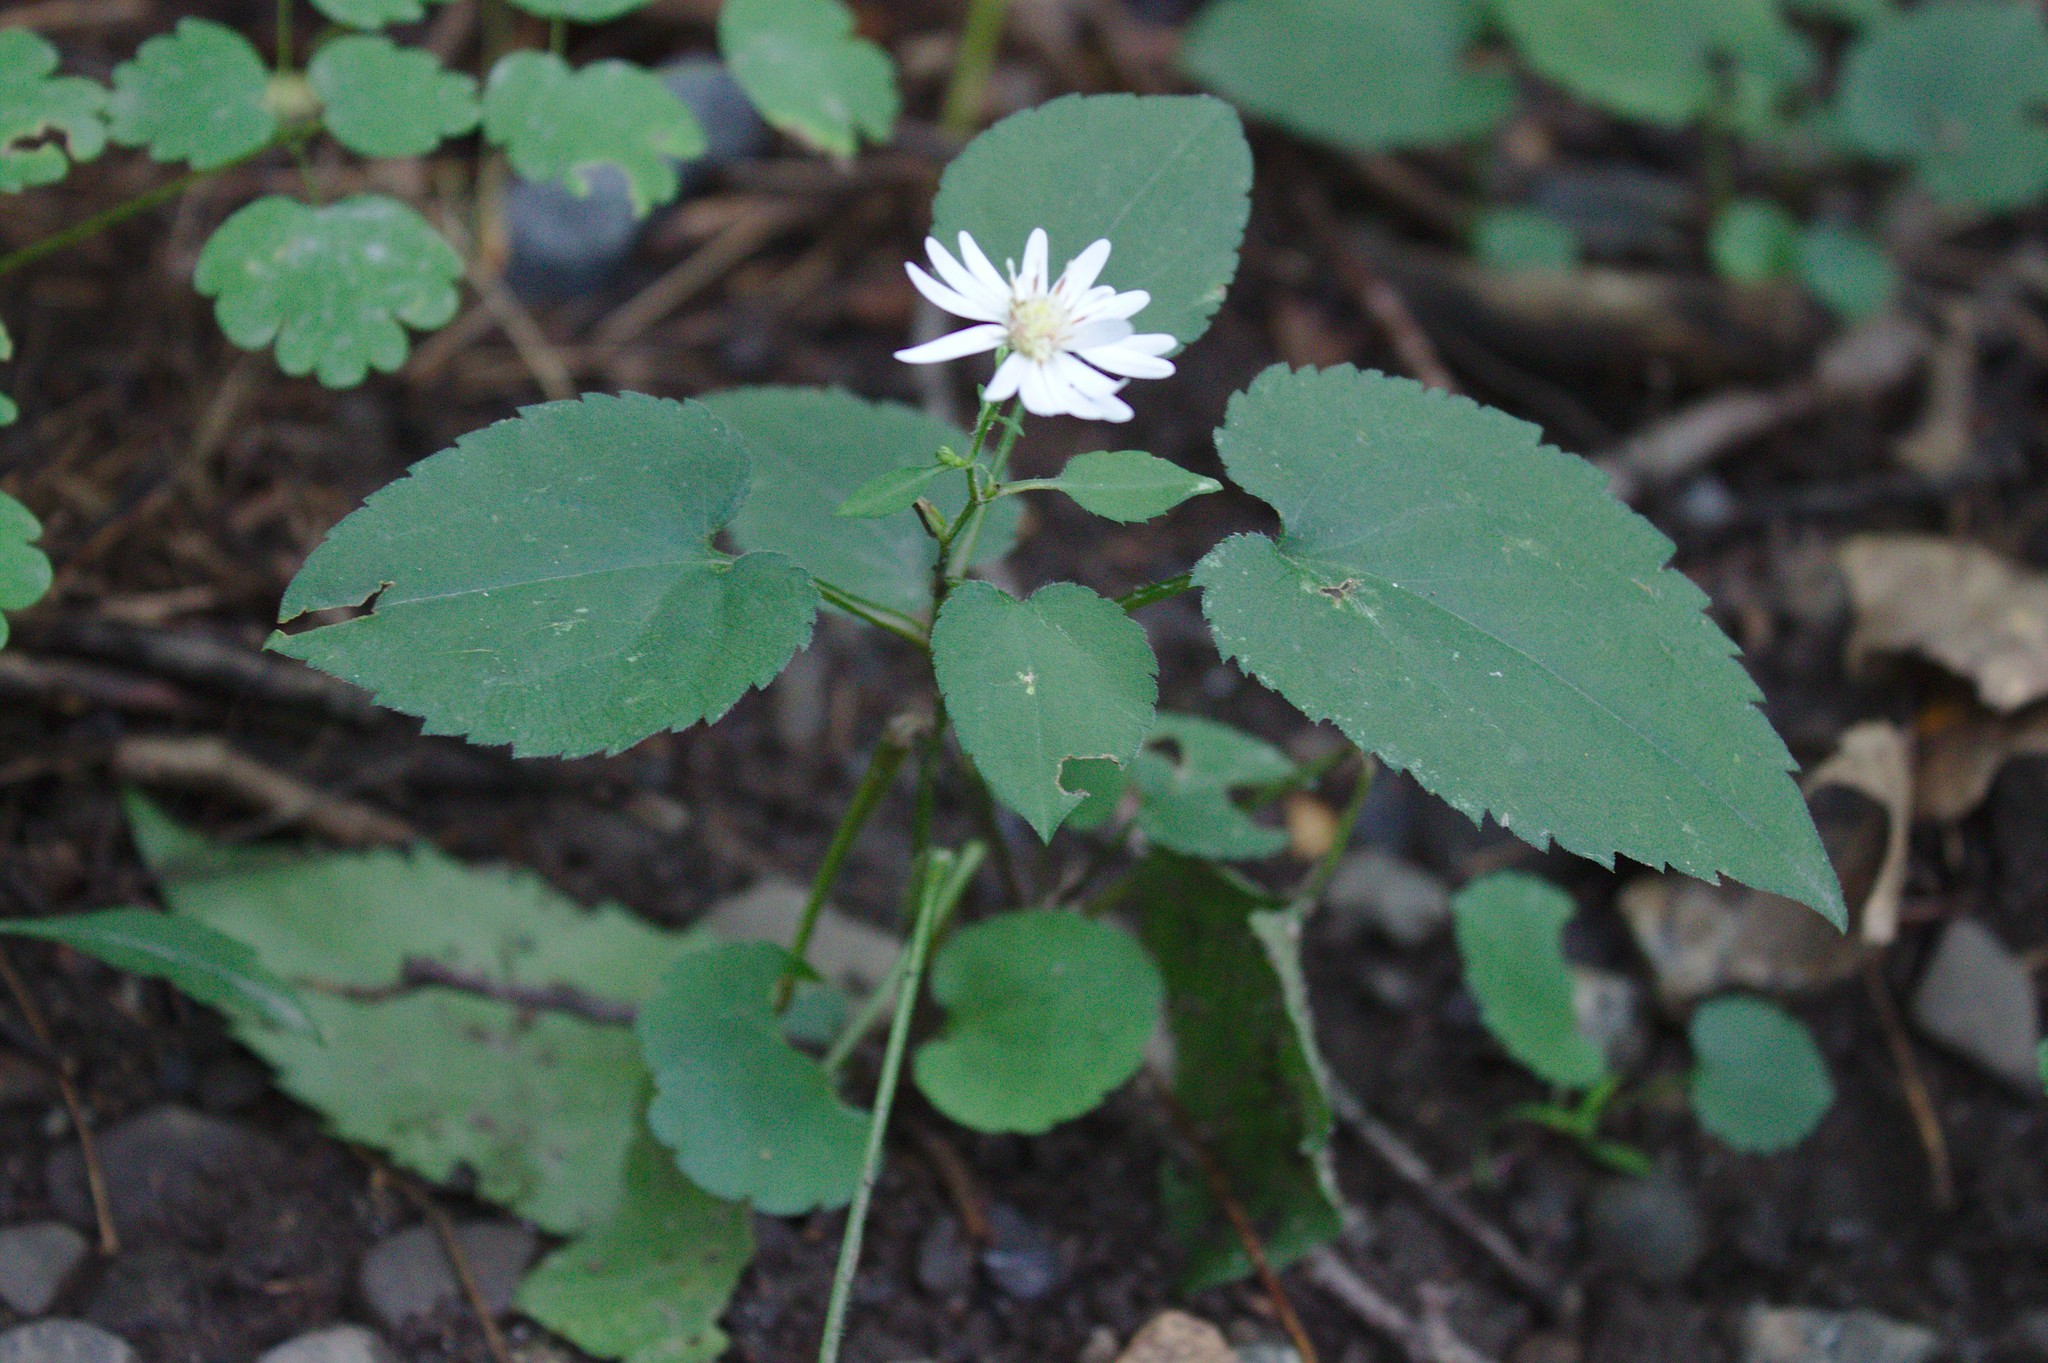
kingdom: Plantae
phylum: Tracheophyta
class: Magnoliopsida
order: Asterales
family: Asteraceae
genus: Symphyotrichum
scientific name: Symphyotrichum cordifolium
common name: Beeweed
